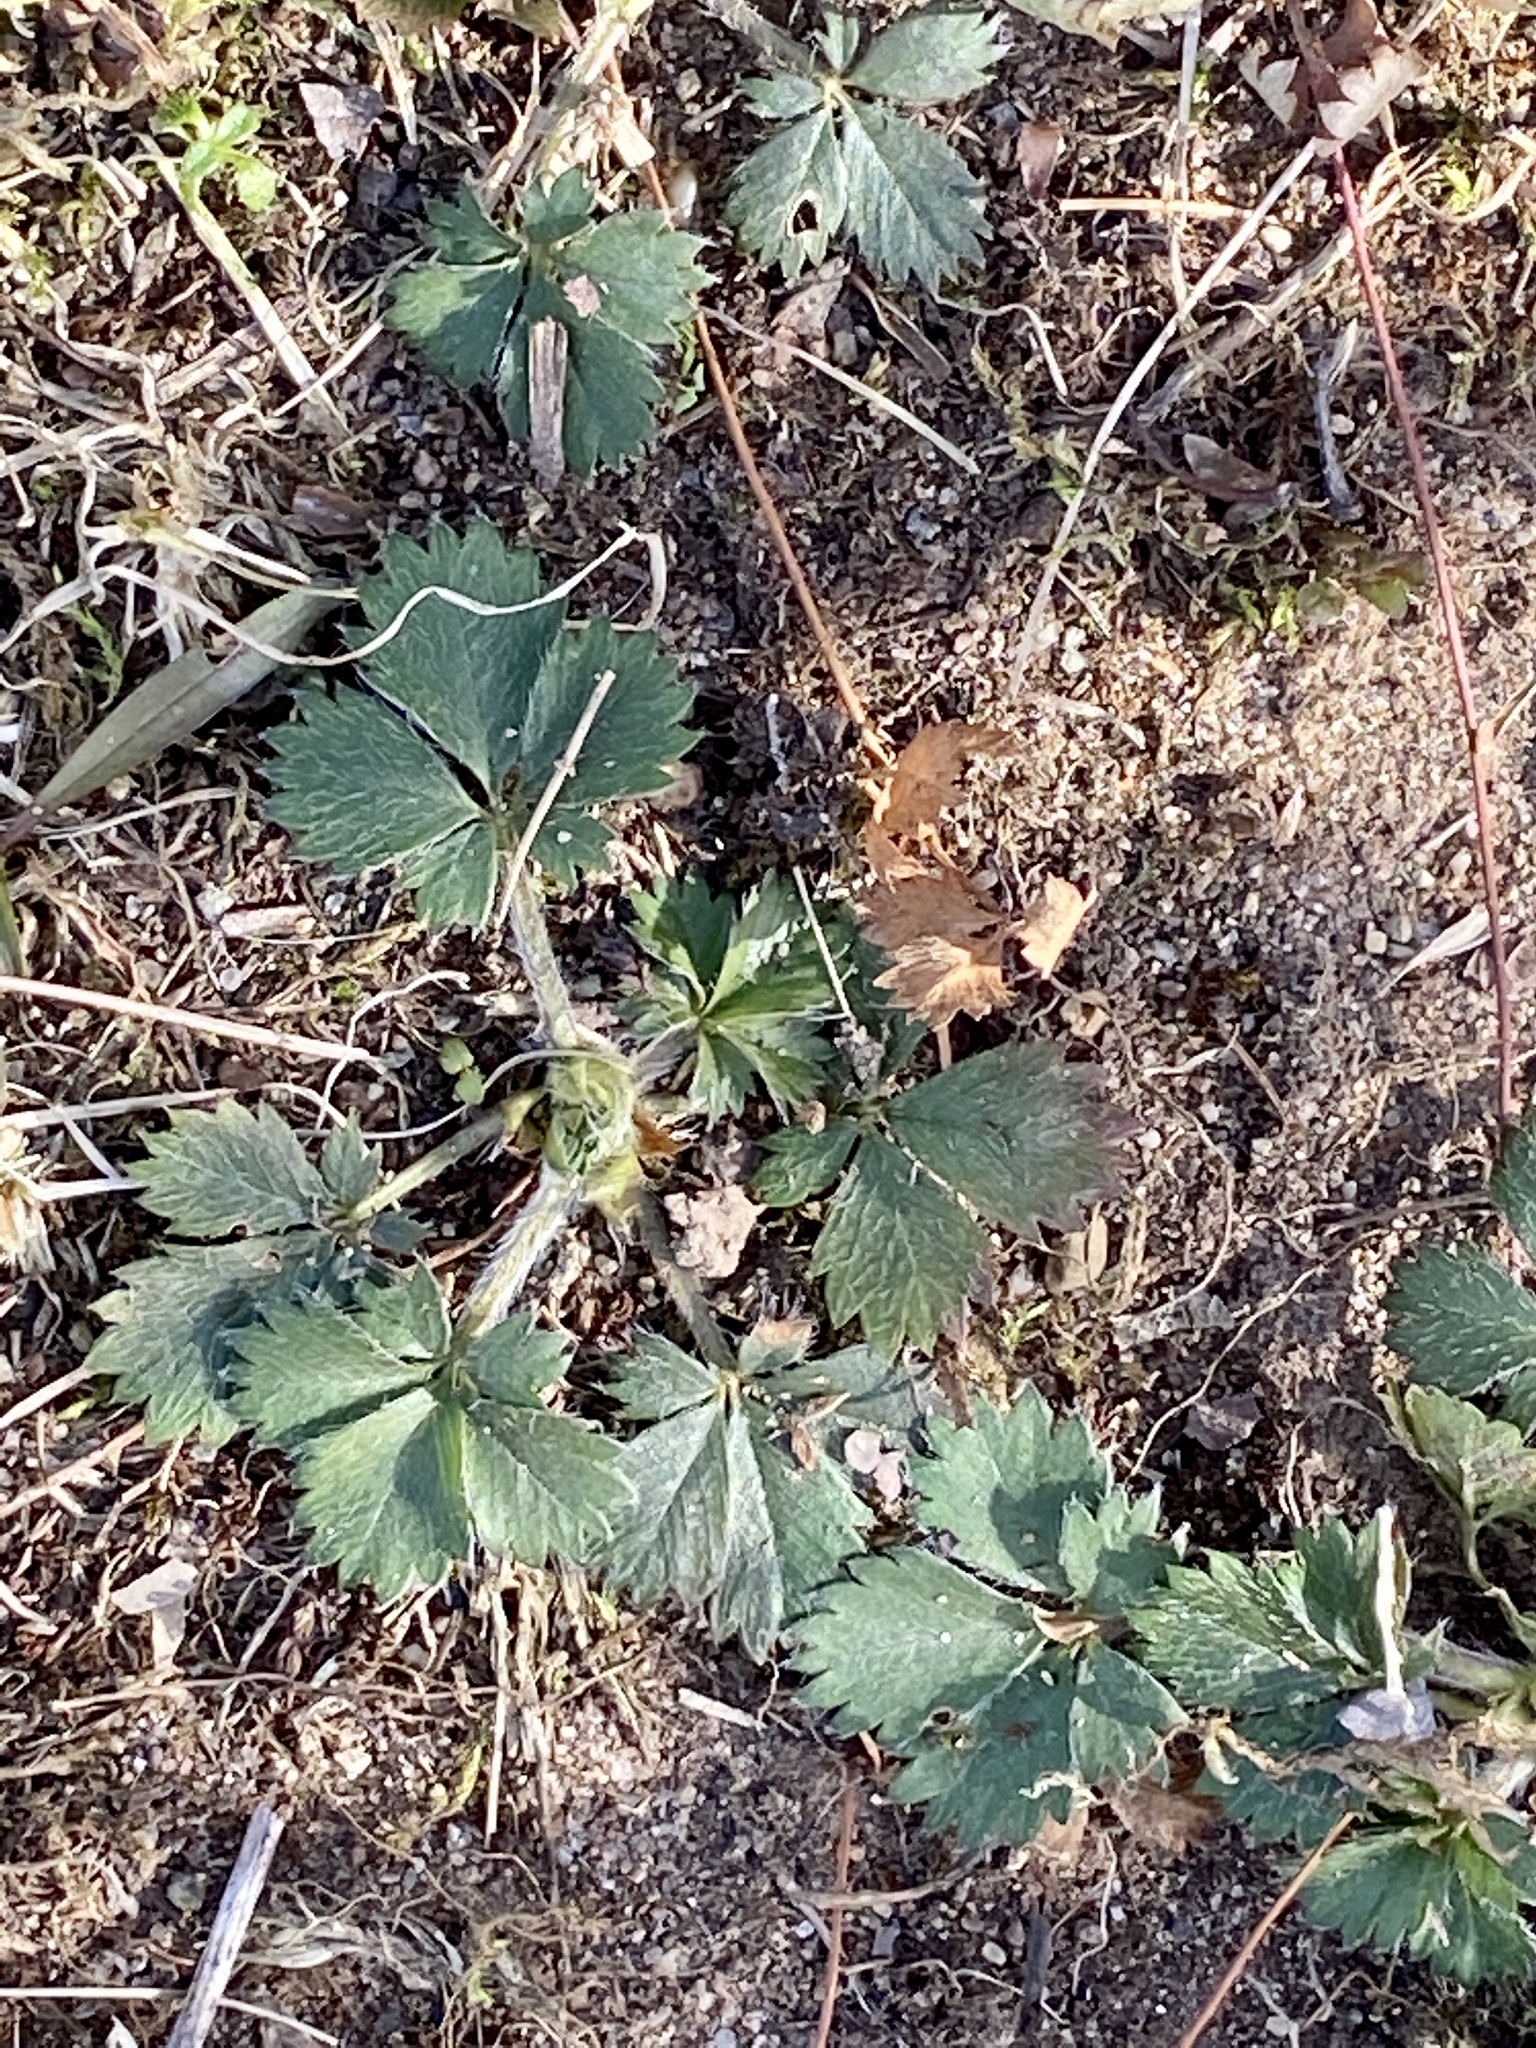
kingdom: Plantae
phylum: Tracheophyta
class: Magnoliopsida
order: Rosales
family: Rosaceae
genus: Potentilla
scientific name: Potentilla canadensis
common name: Canada cinquefoil
